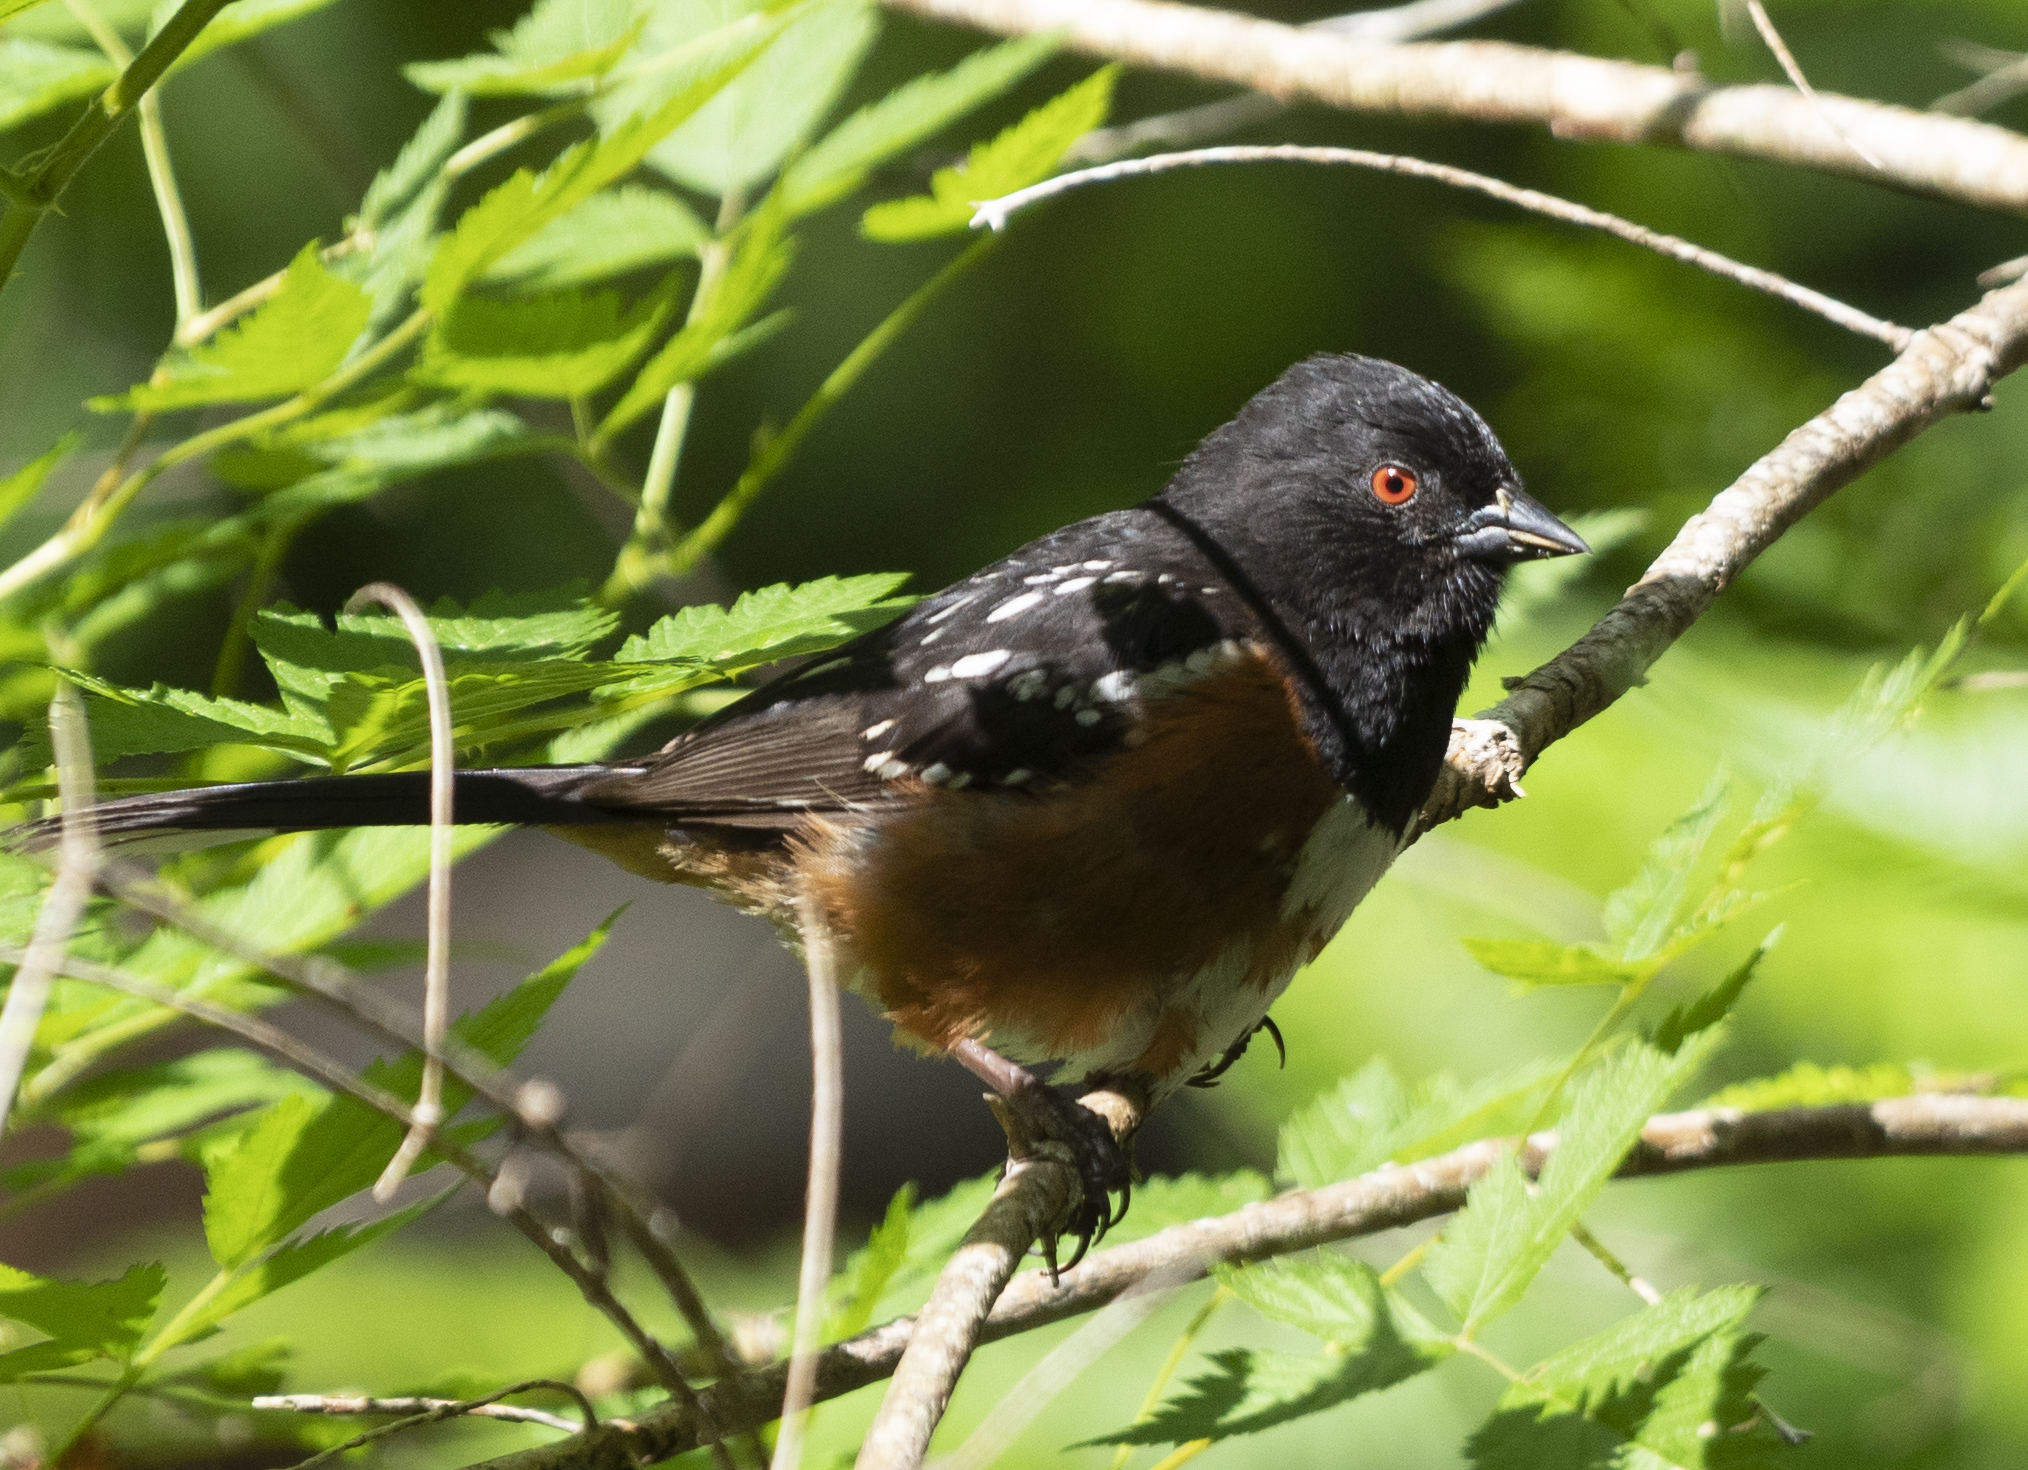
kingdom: Animalia
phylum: Chordata
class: Aves
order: Passeriformes
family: Passerellidae
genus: Pipilo
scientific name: Pipilo maculatus
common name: Spotted towhee
